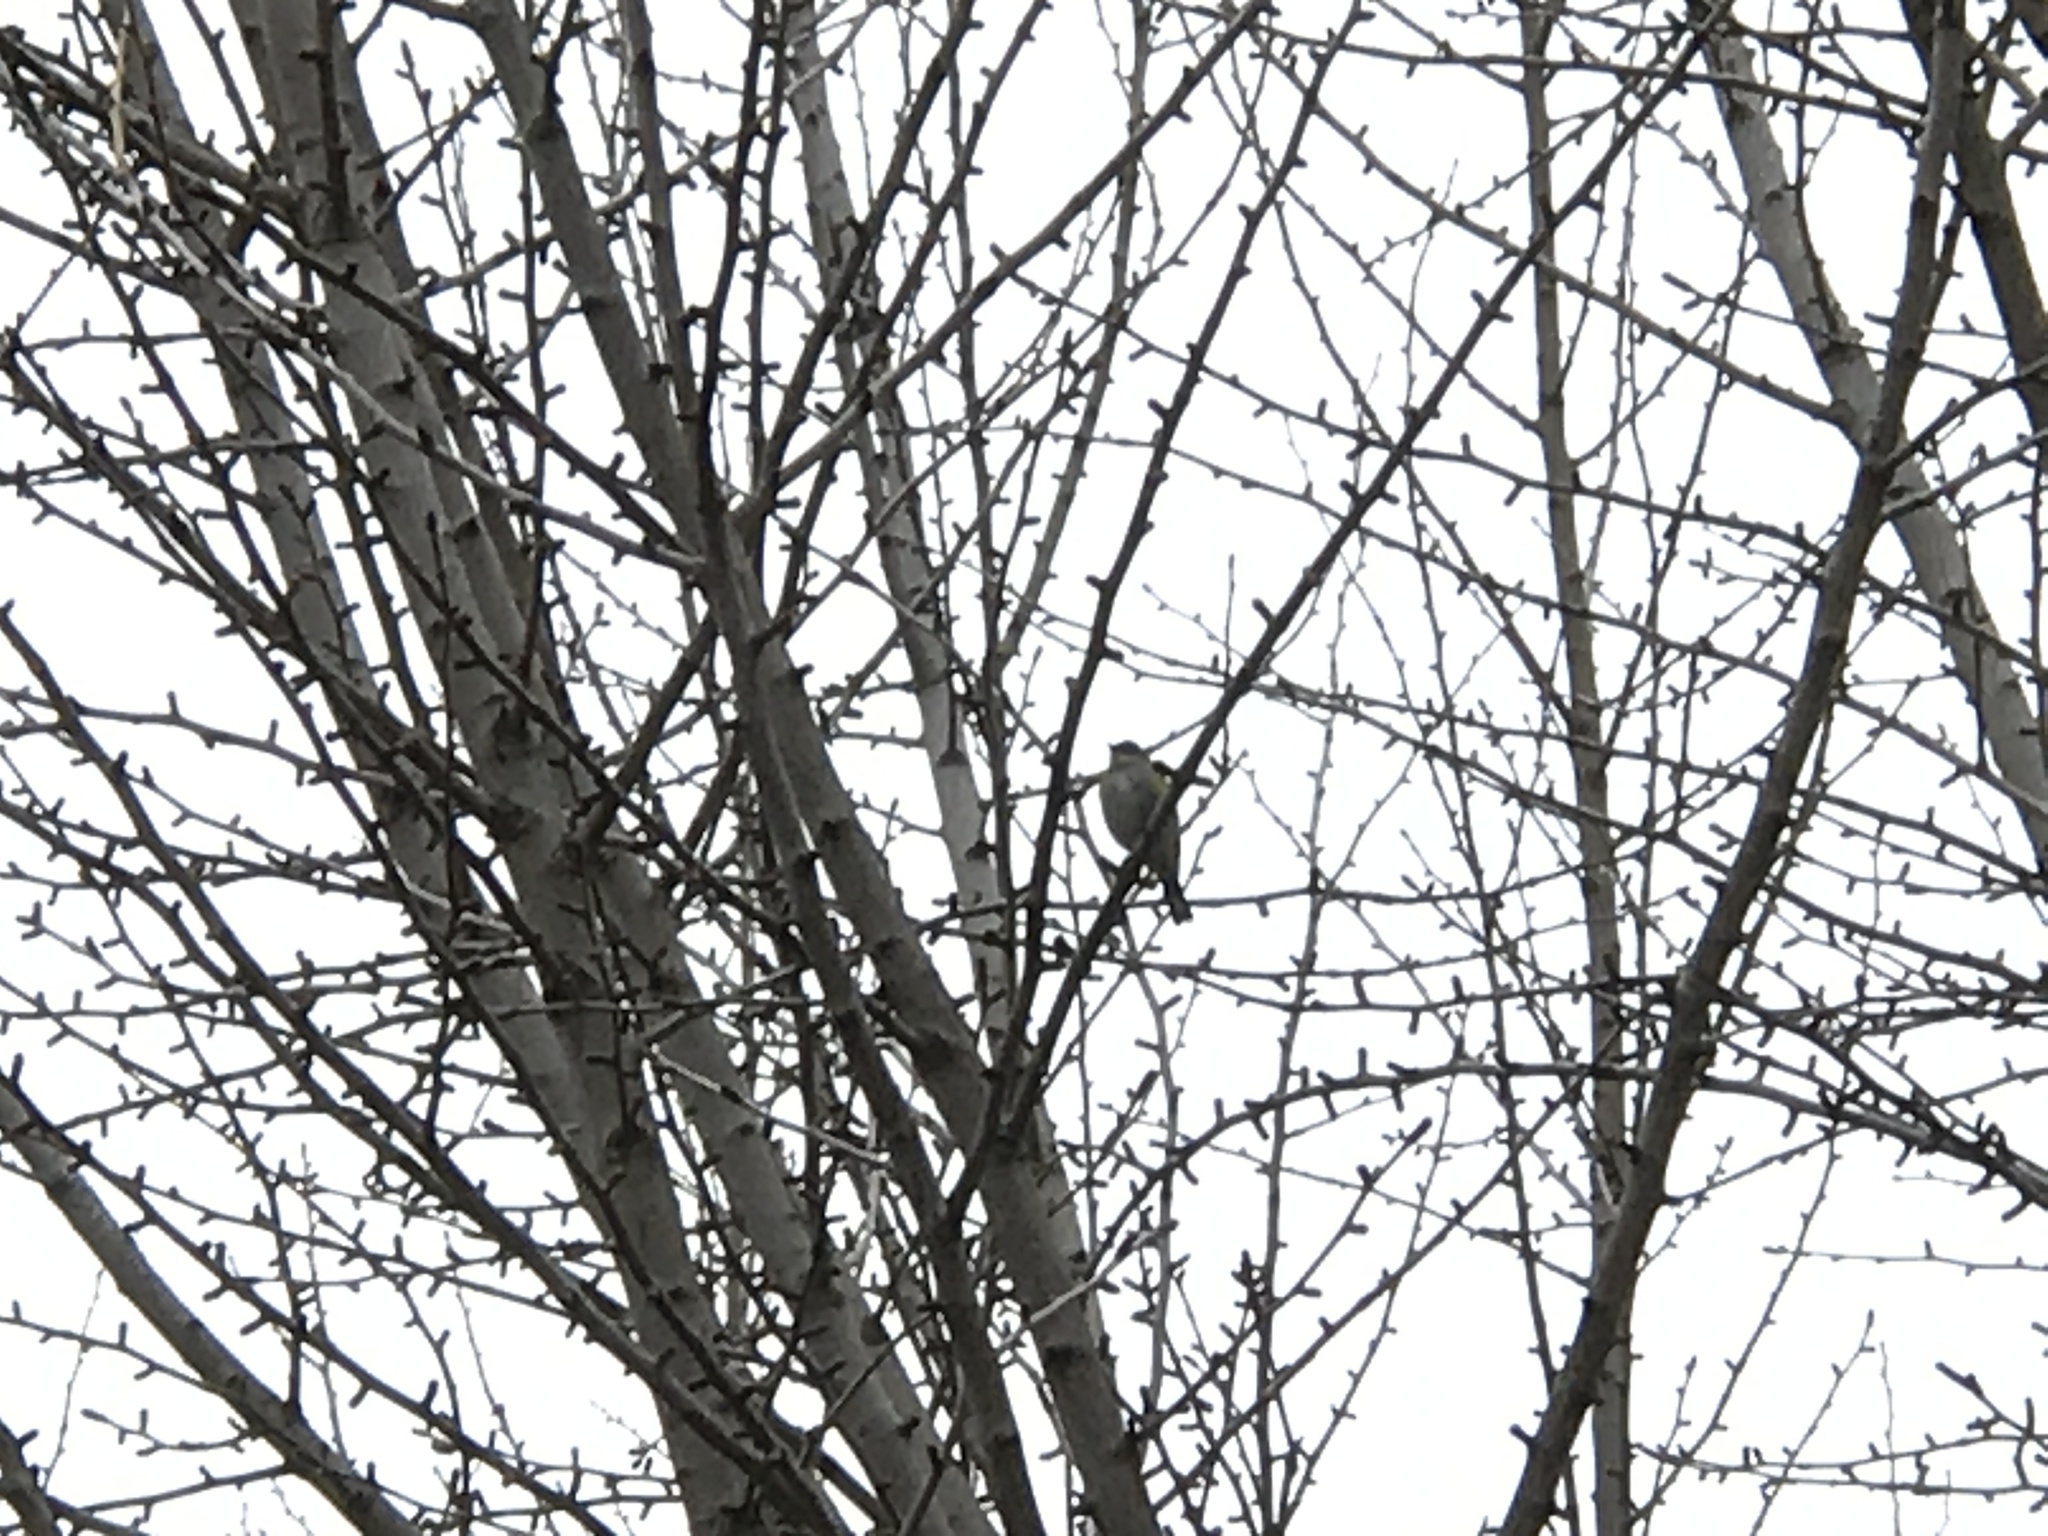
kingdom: Animalia
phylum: Chordata
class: Aves
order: Passeriformes
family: Parulidae
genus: Setophaga
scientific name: Setophaga coronata
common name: Myrtle warbler
